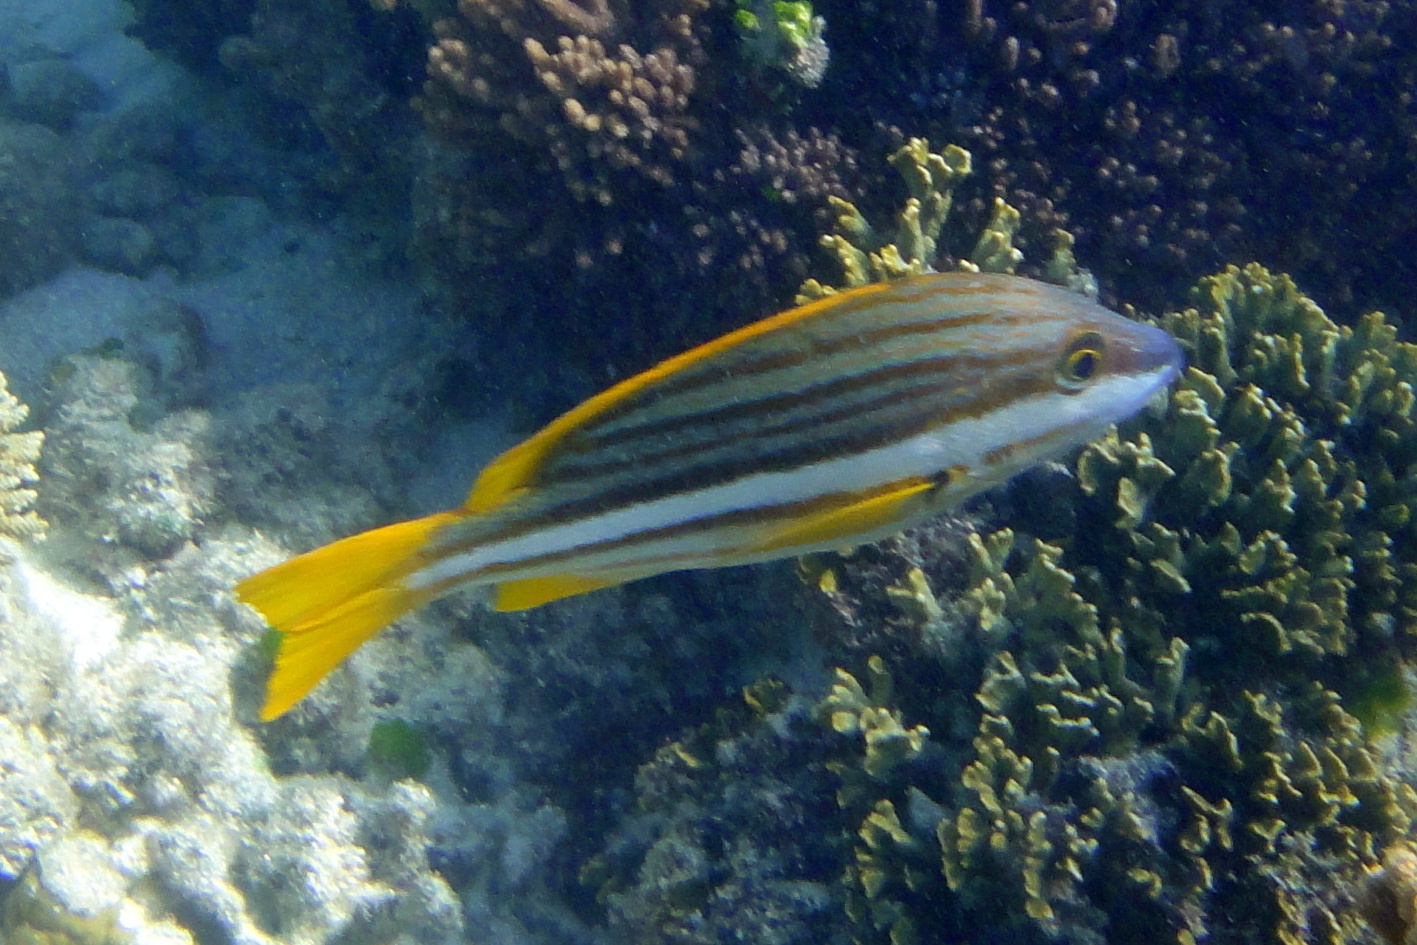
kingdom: Animalia
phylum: Chordata
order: Perciformes
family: Lutjanidae
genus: Lutjanus
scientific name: Lutjanus carponotatus
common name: Spanish flag
